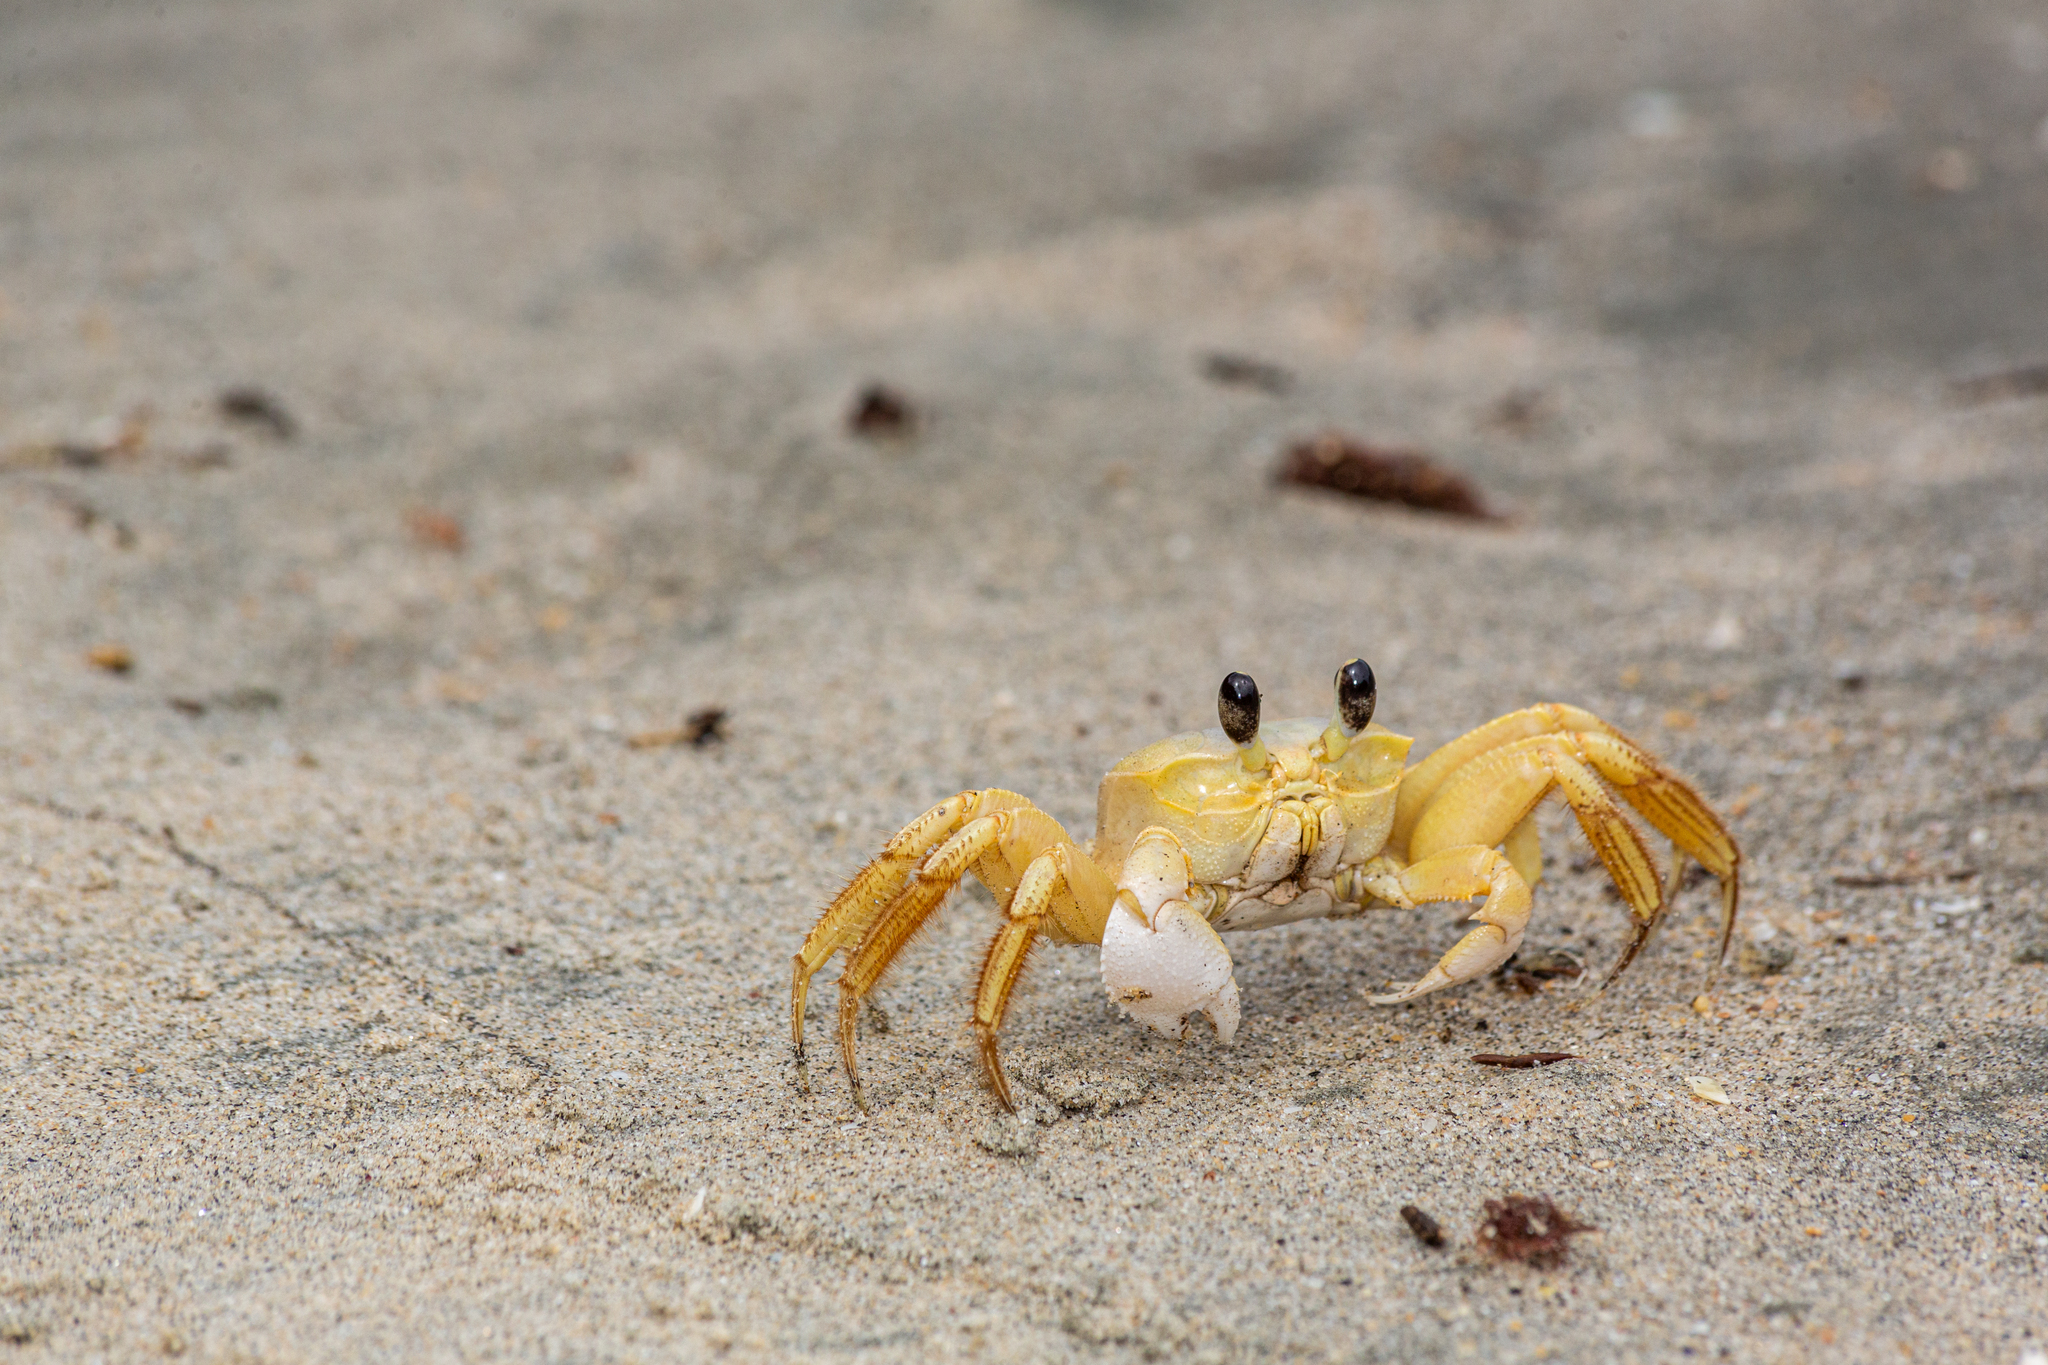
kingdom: Animalia
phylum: Arthropoda
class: Malacostraca
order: Decapoda
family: Ocypodidae
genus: Ocypode
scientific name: Ocypode quadrata
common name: Ghost crab
